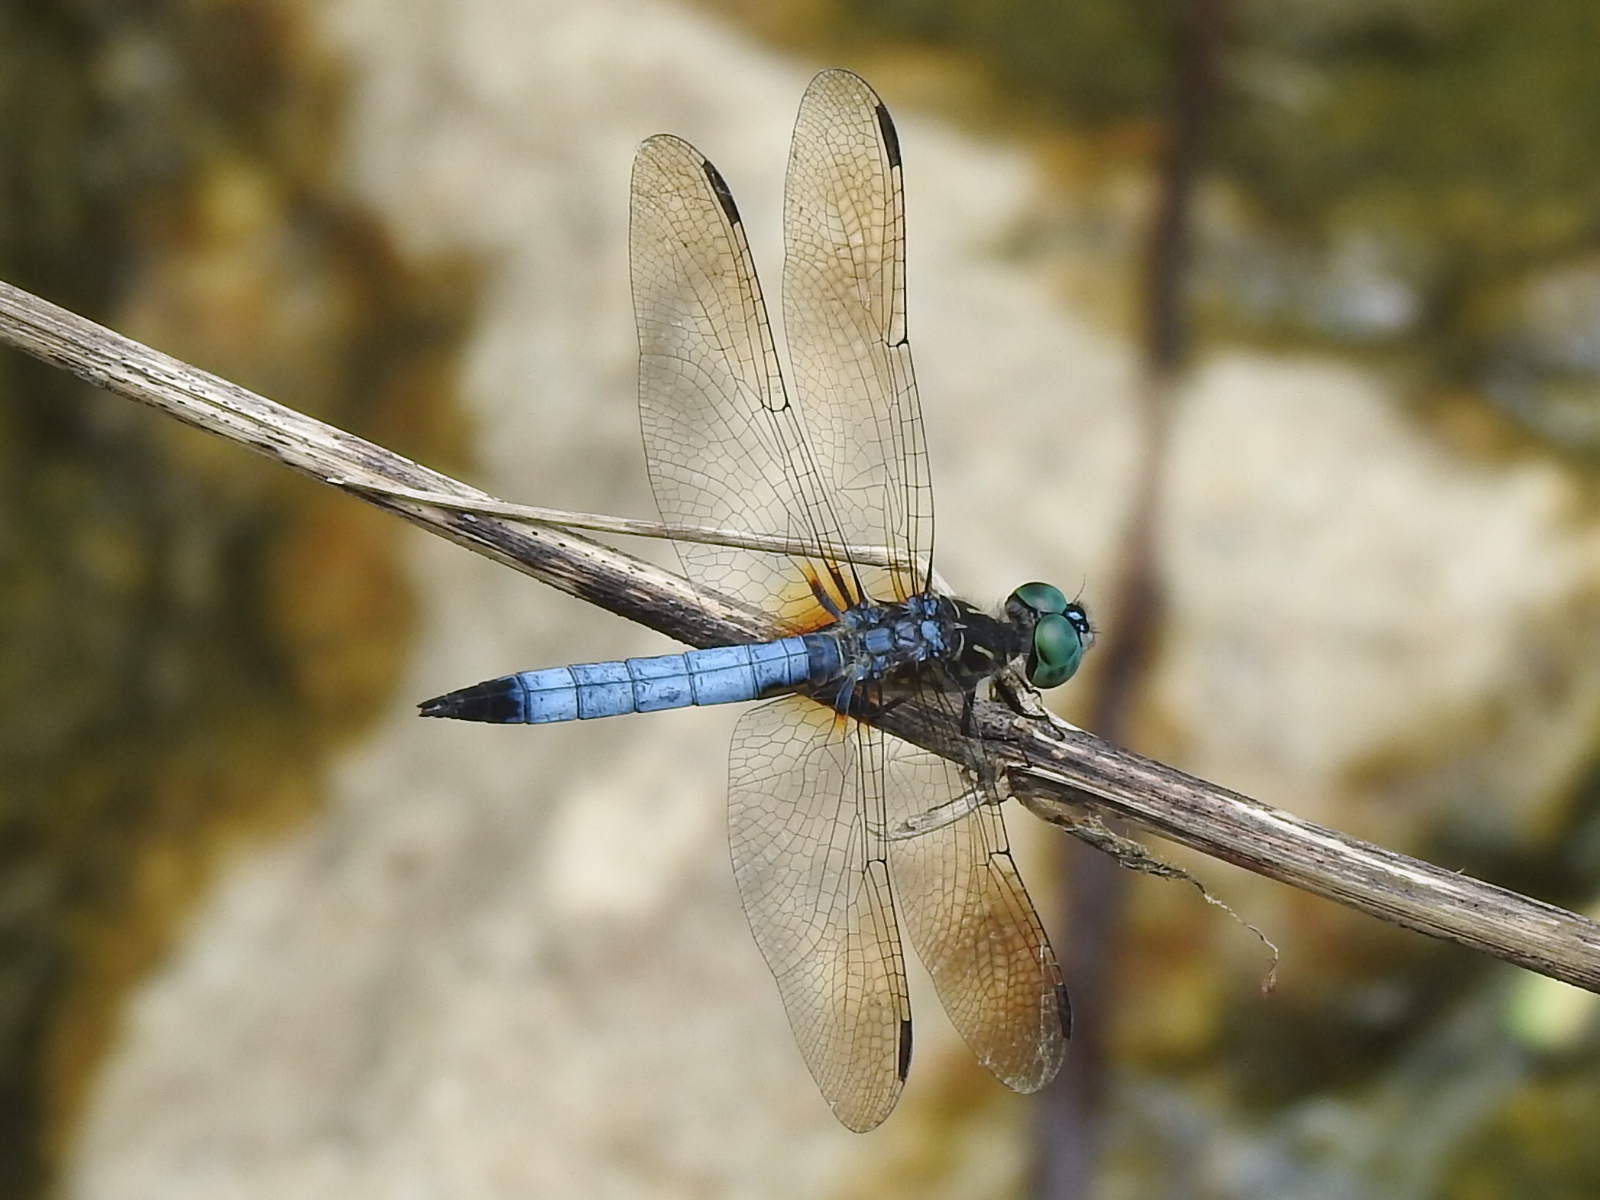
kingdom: Animalia
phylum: Arthropoda
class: Insecta
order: Odonata
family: Libellulidae
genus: Pachydiplax
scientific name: Pachydiplax longipennis
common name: Blue dasher
